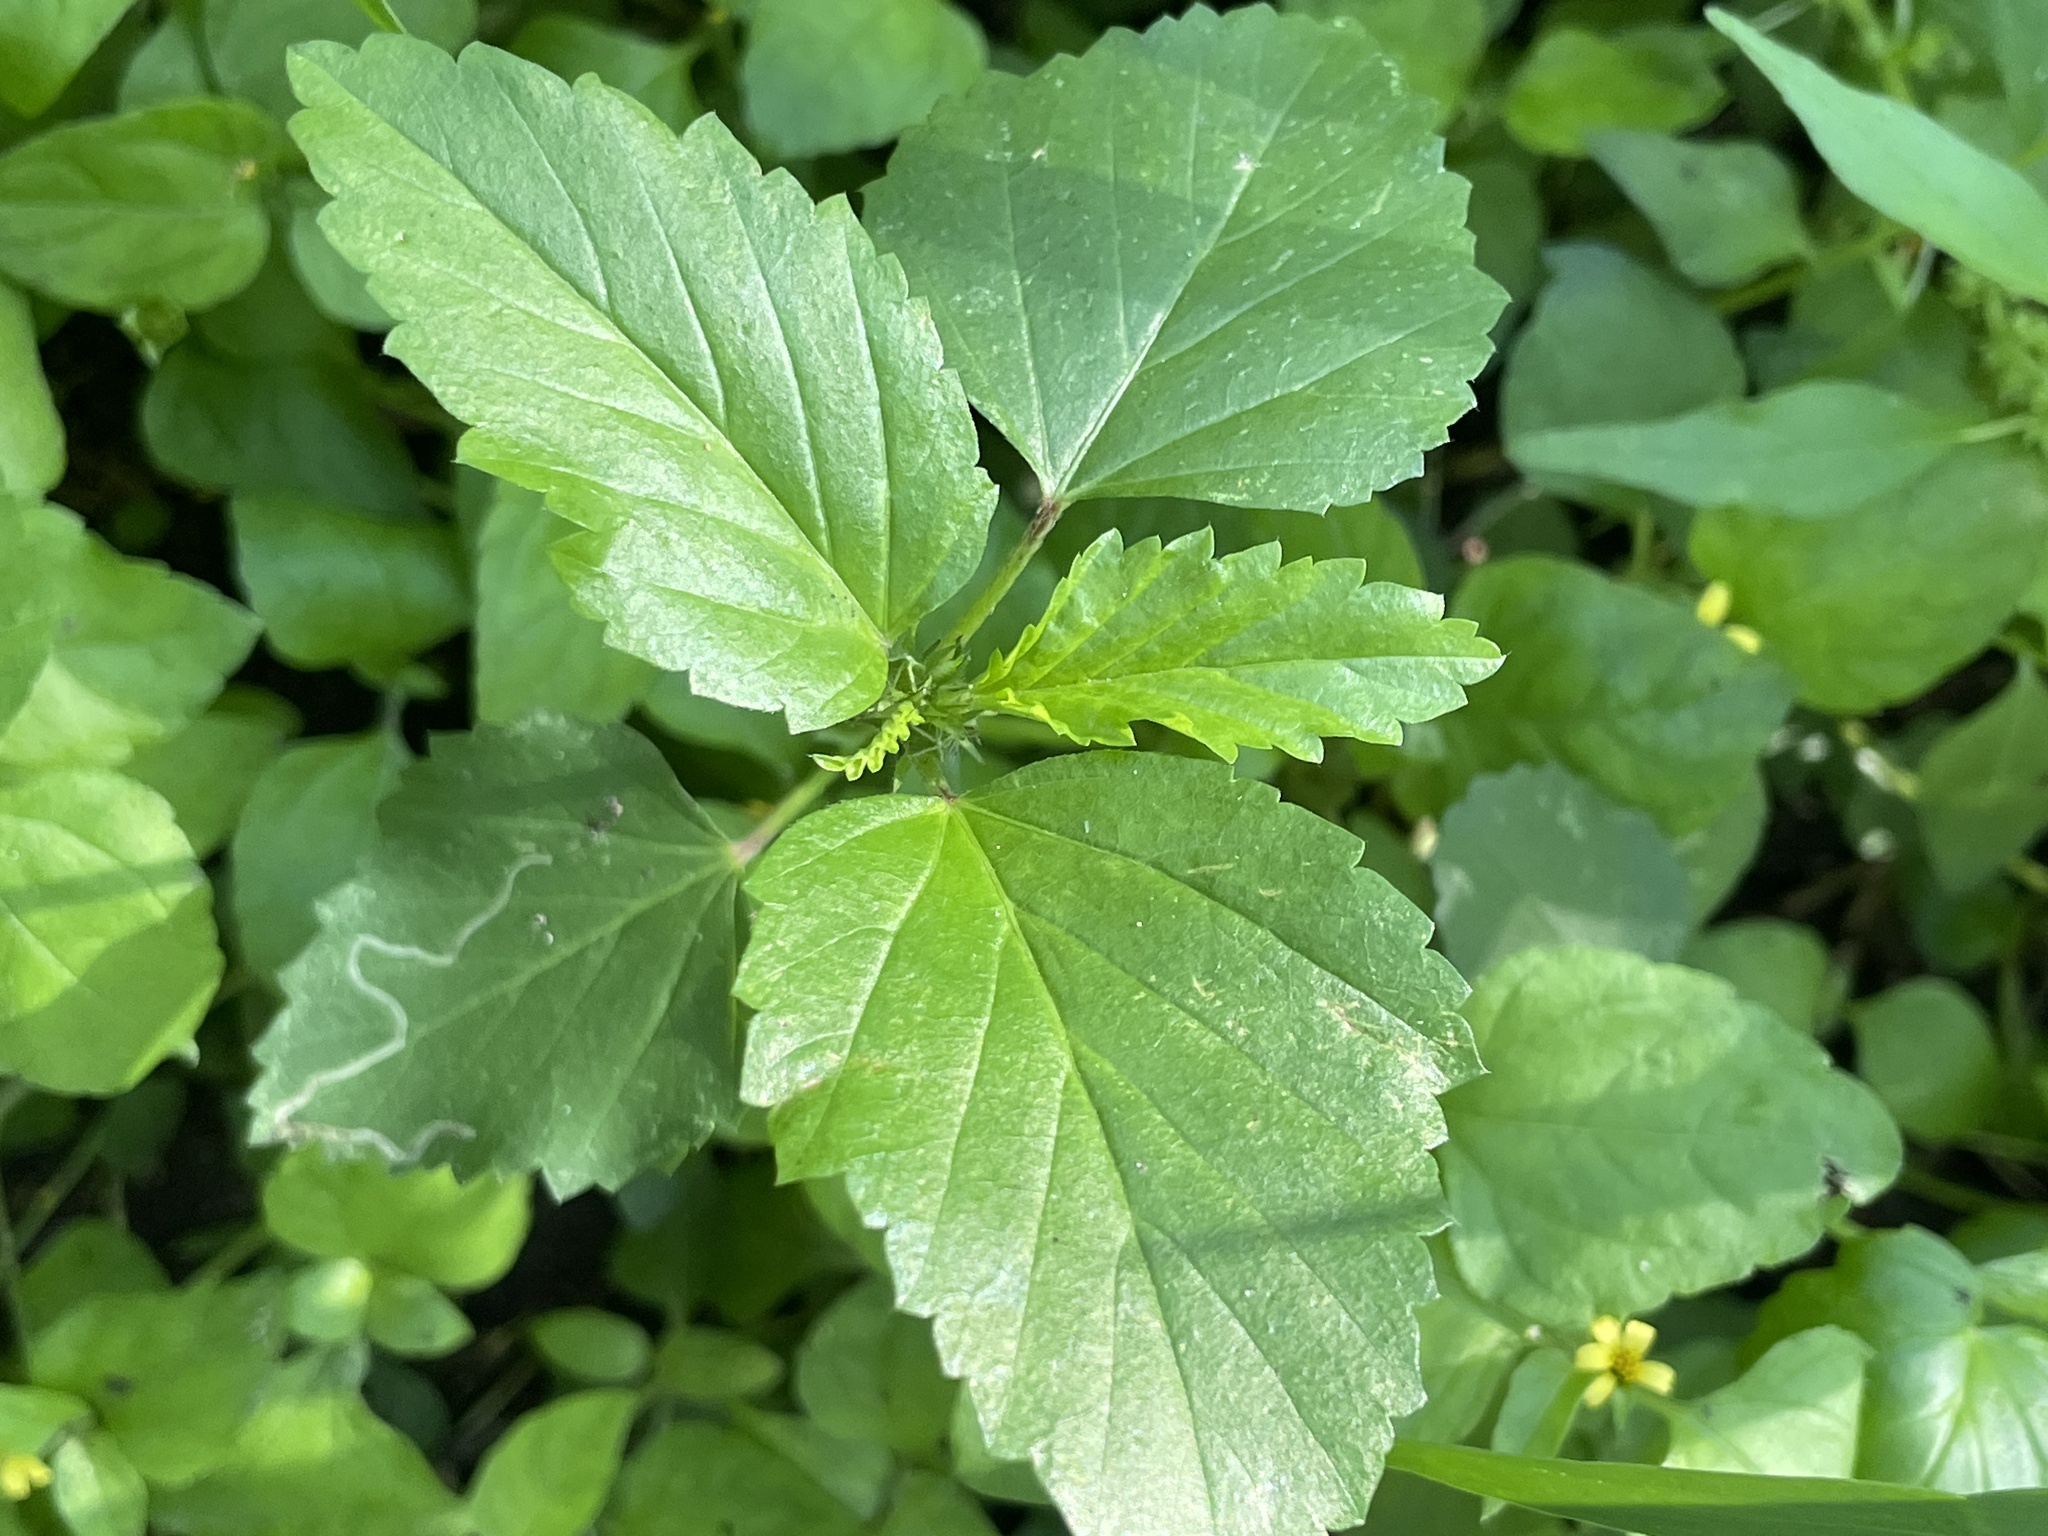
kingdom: Plantae
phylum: Tracheophyta
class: Magnoliopsida
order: Malvales
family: Malvaceae
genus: Malvastrum
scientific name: Malvastrum coromandelianum
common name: Threelobe false mallow
